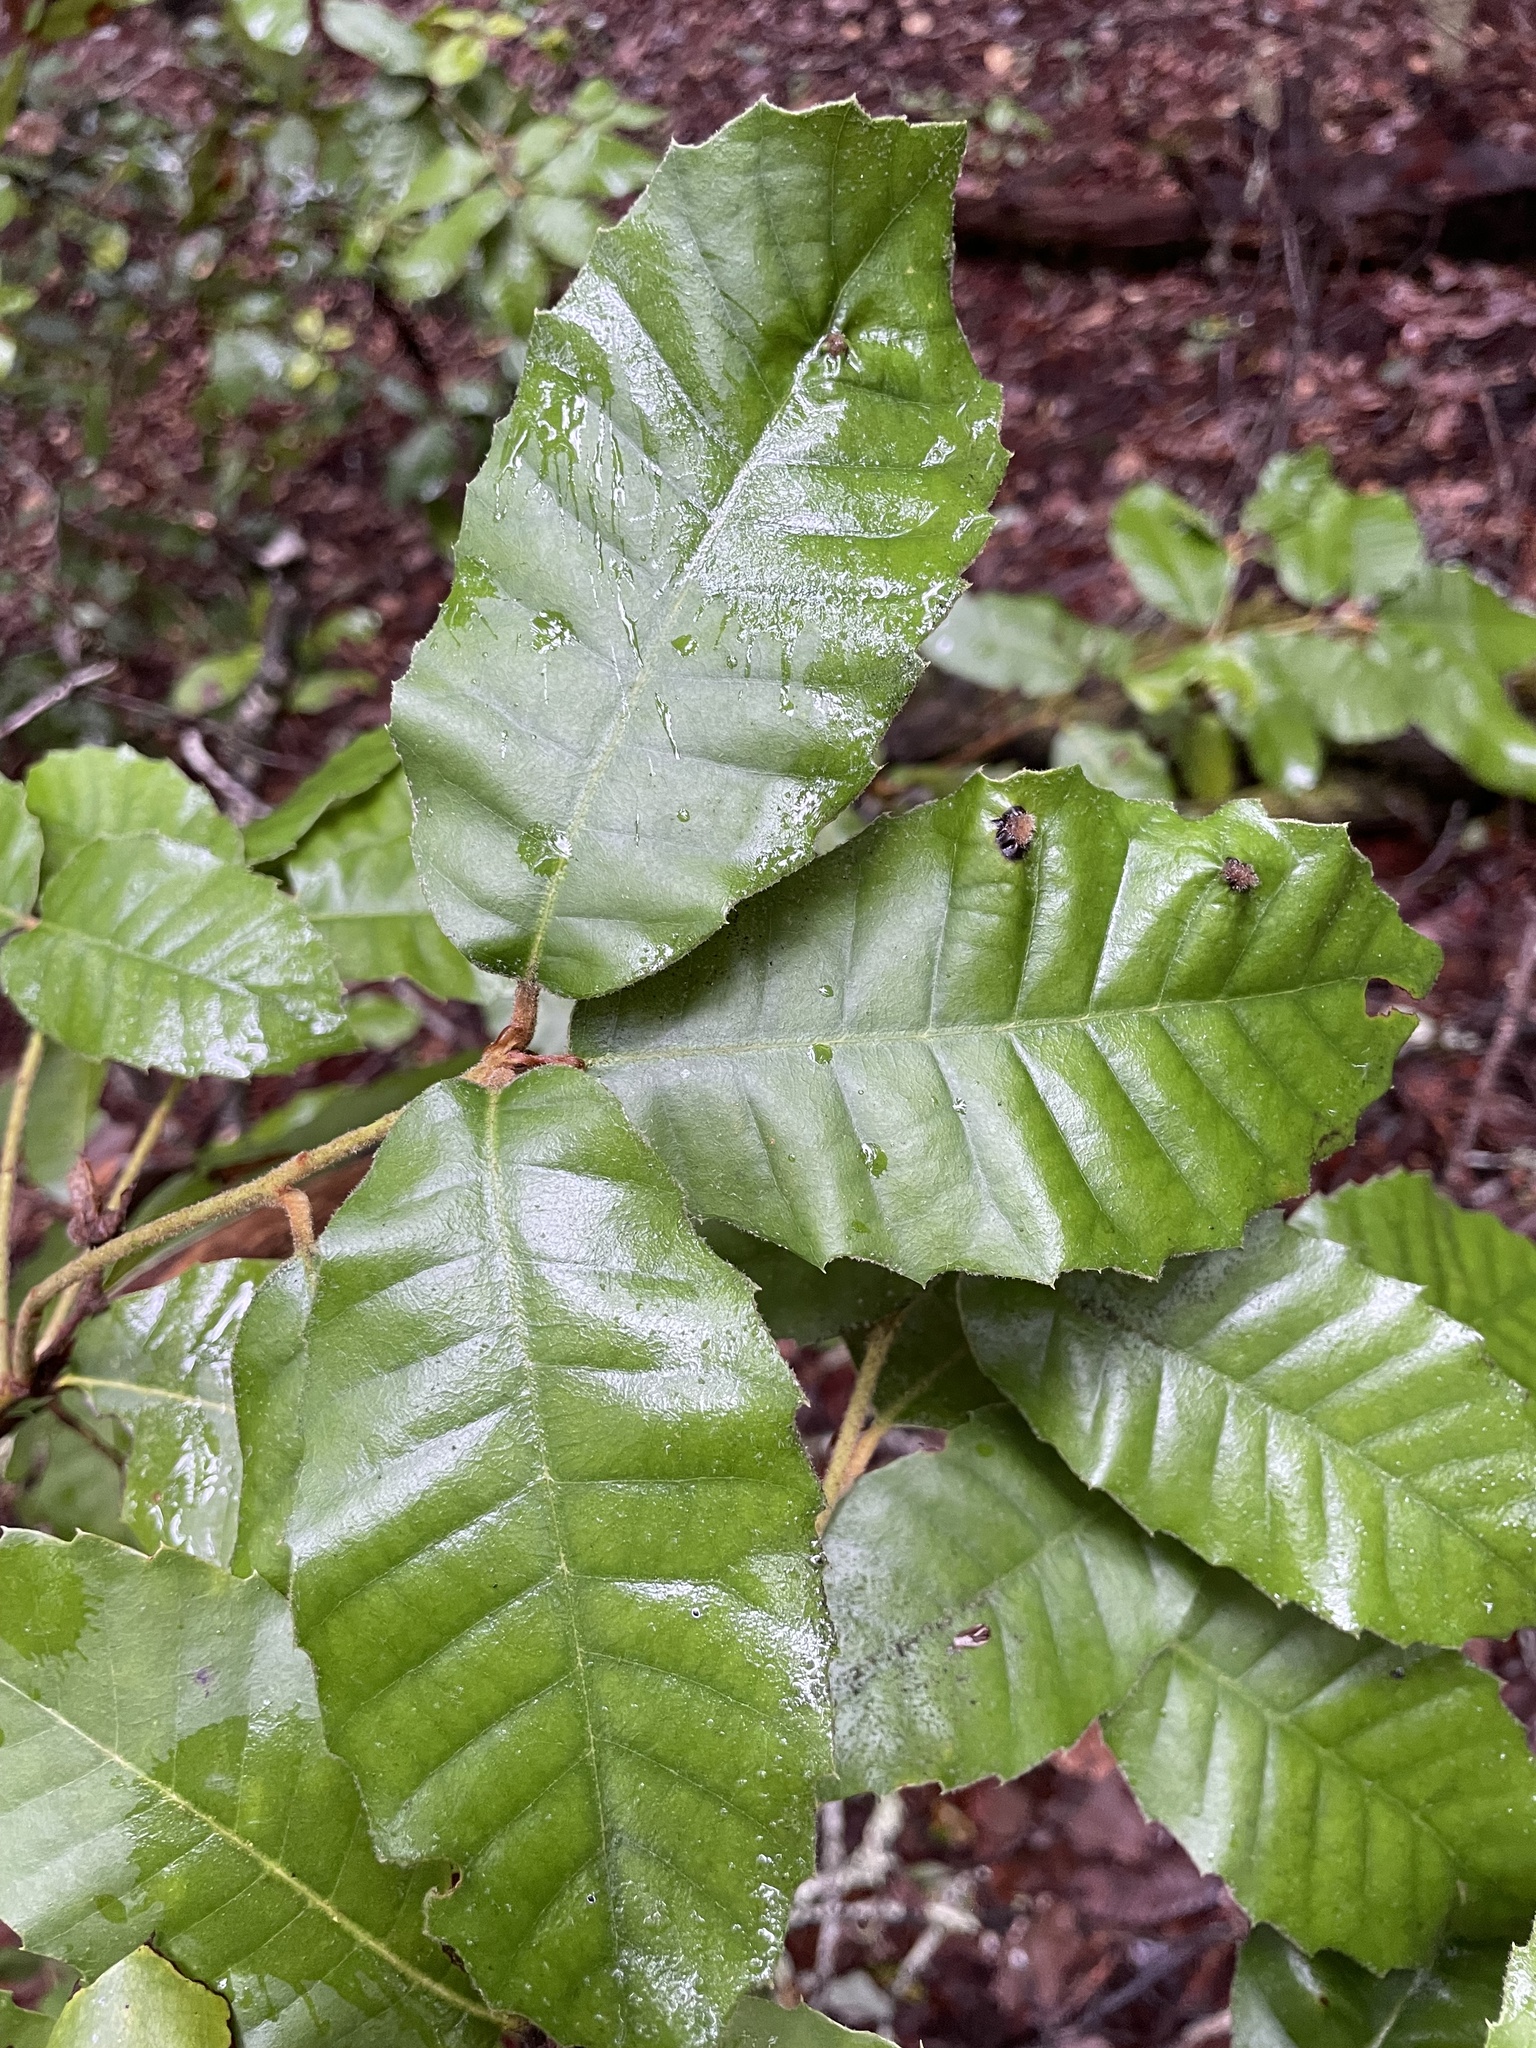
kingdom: Plantae
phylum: Tracheophyta
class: Magnoliopsida
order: Fagales
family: Fagaceae
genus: Notholithocarpus
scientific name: Notholithocarpus densiflorus
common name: Tan bark oak
